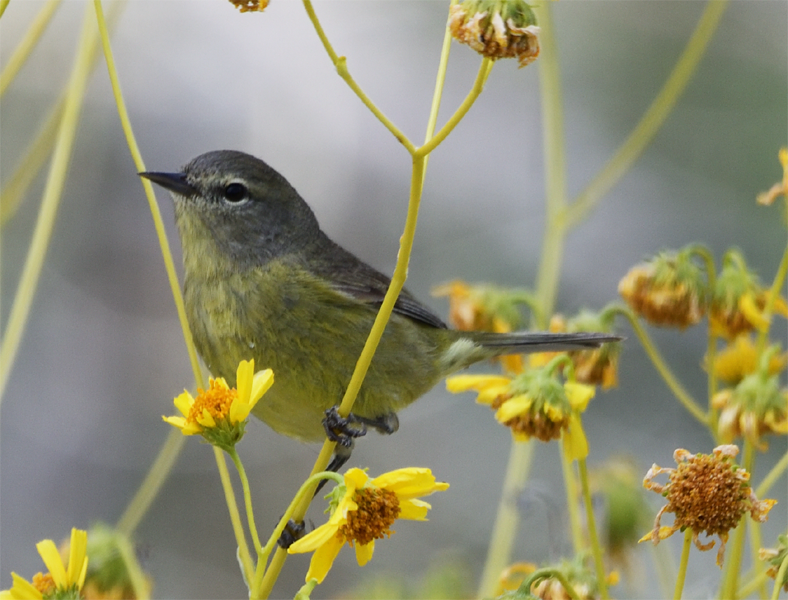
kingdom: Animalia
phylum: Chordata
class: Aves
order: Passeriformes
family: Parulidae
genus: Leiothlypis
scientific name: Leiothlypis celata
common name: Orange-crowned warbler
